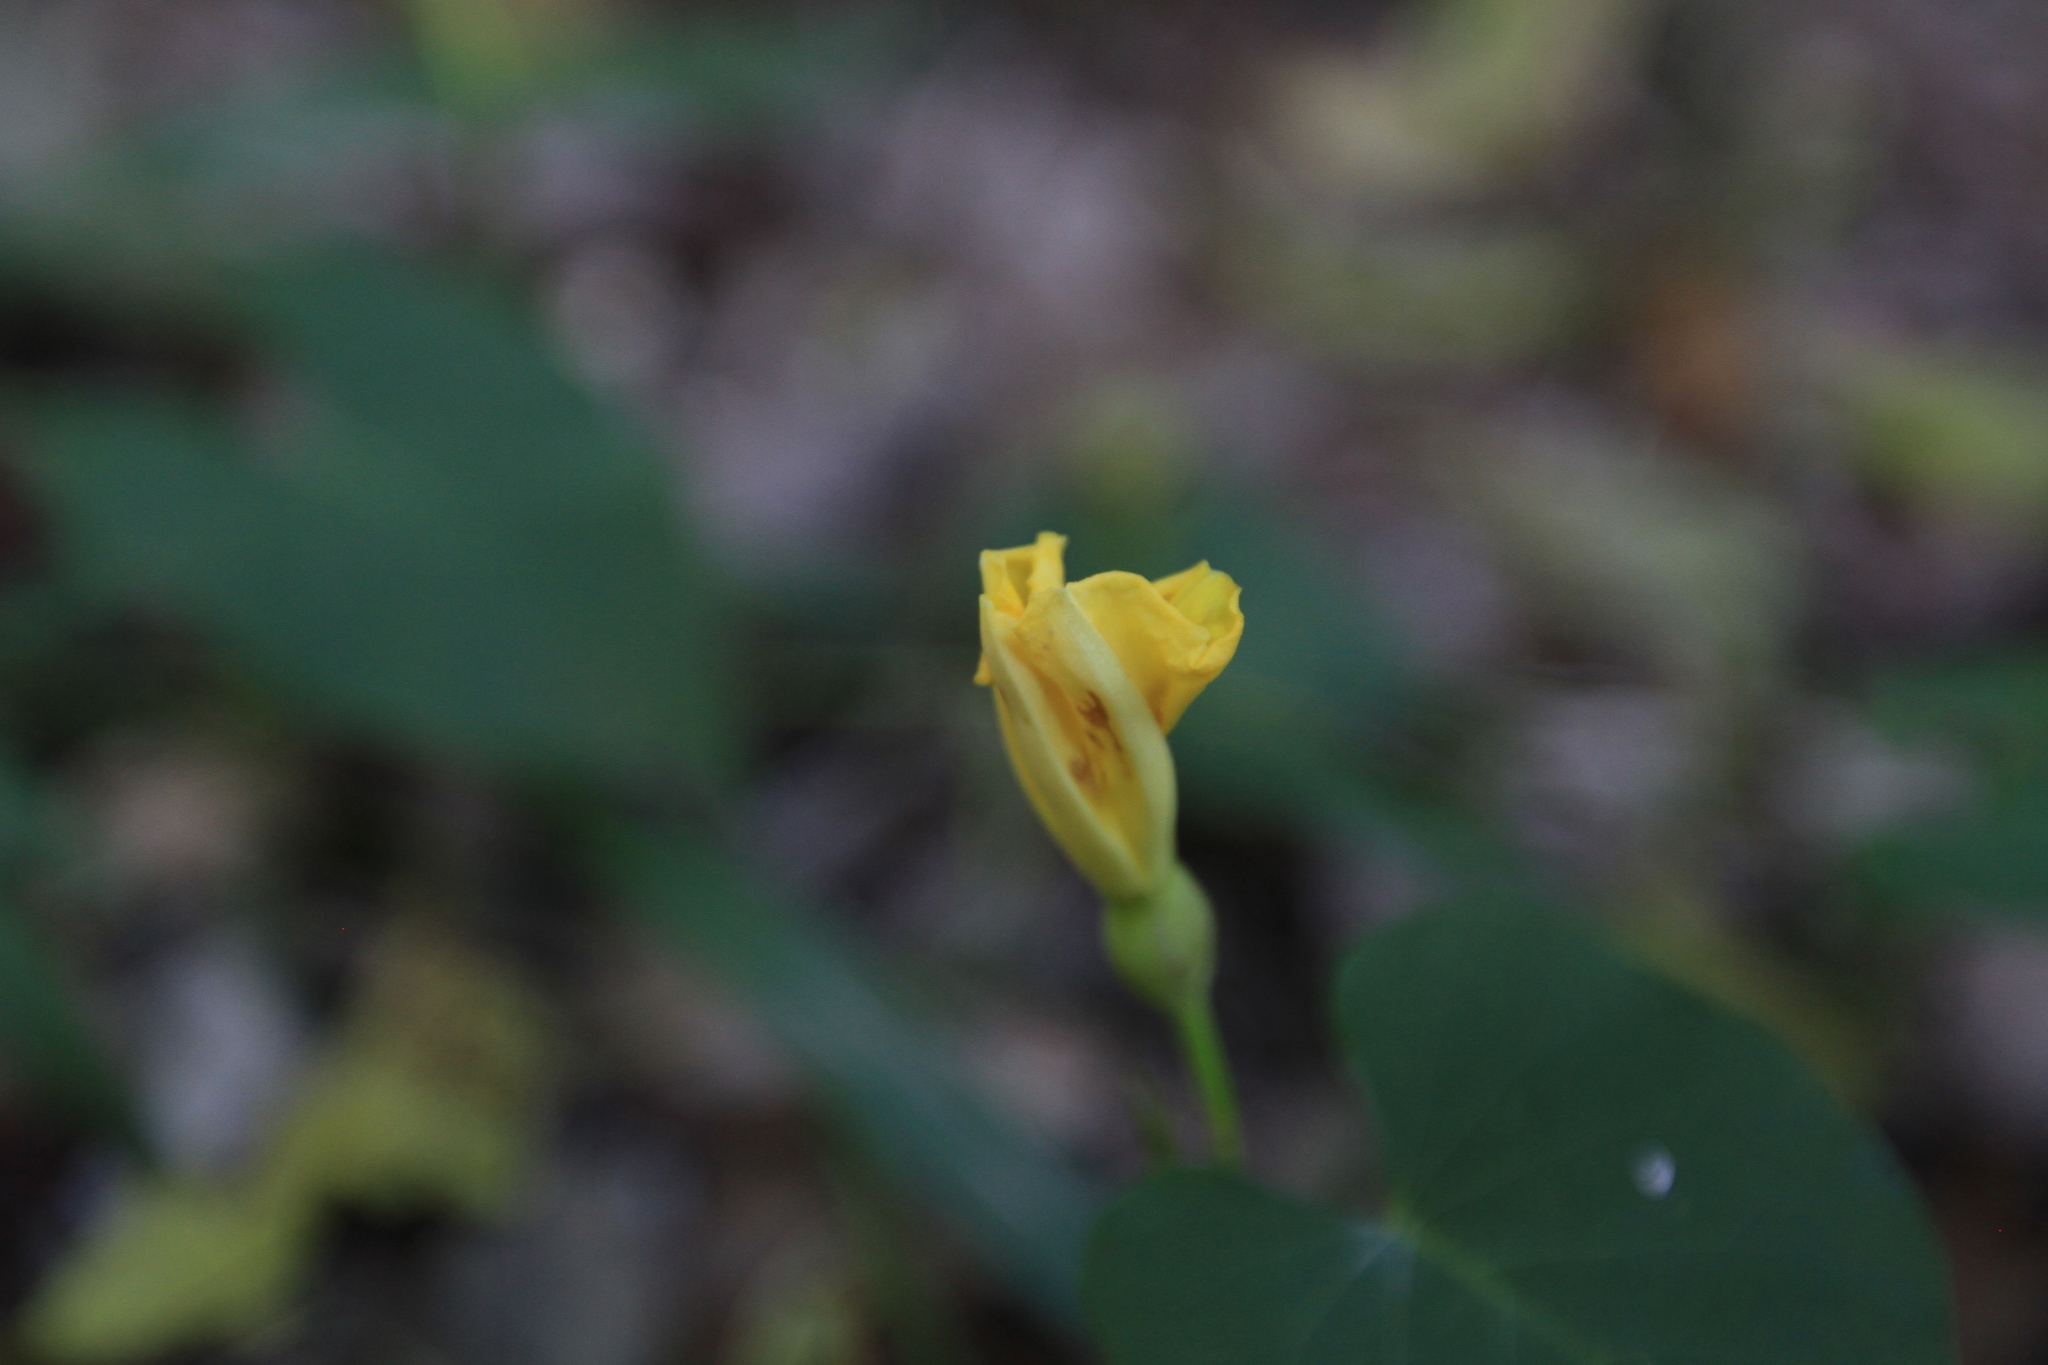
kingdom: Plantae
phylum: Tracheophyta
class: Magnoliopsida
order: Solanales
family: Convolvulaceae
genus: Camonea
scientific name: Camonea umbellata
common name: Hogvine
